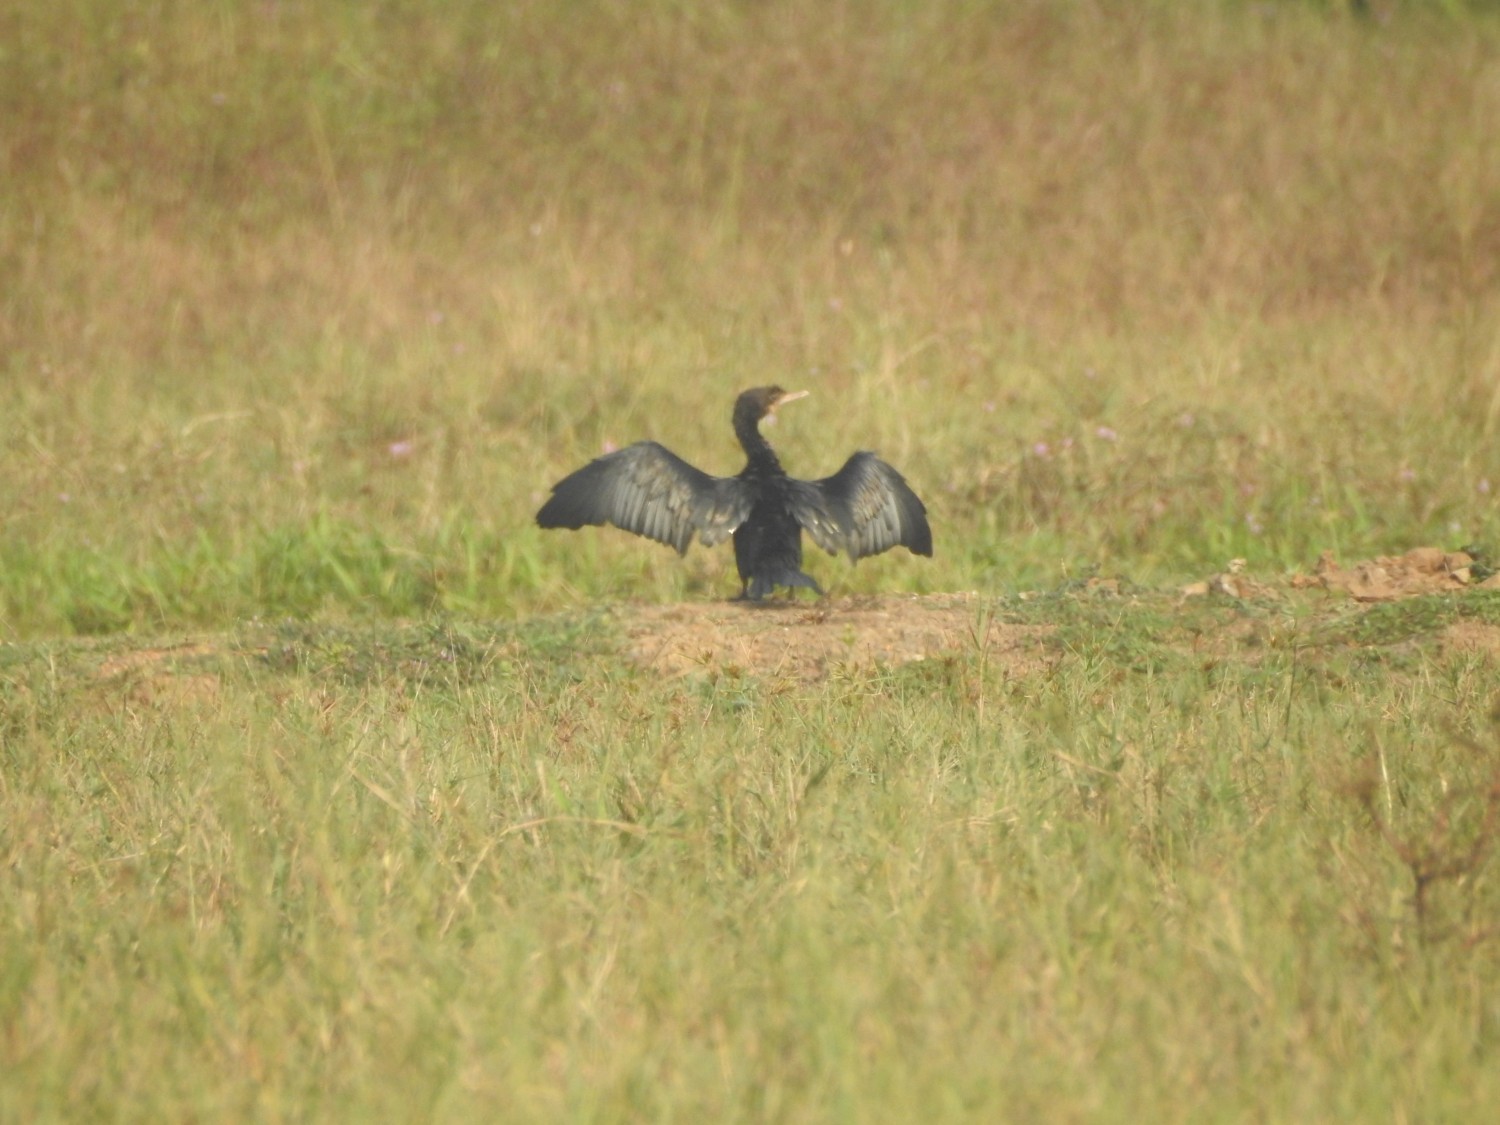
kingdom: Animalia
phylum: Chordata
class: Aves
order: Suliformes
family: Phalacrocoracidae
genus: Microcarbo
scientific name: Microcarbo niger
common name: Little cormorant
